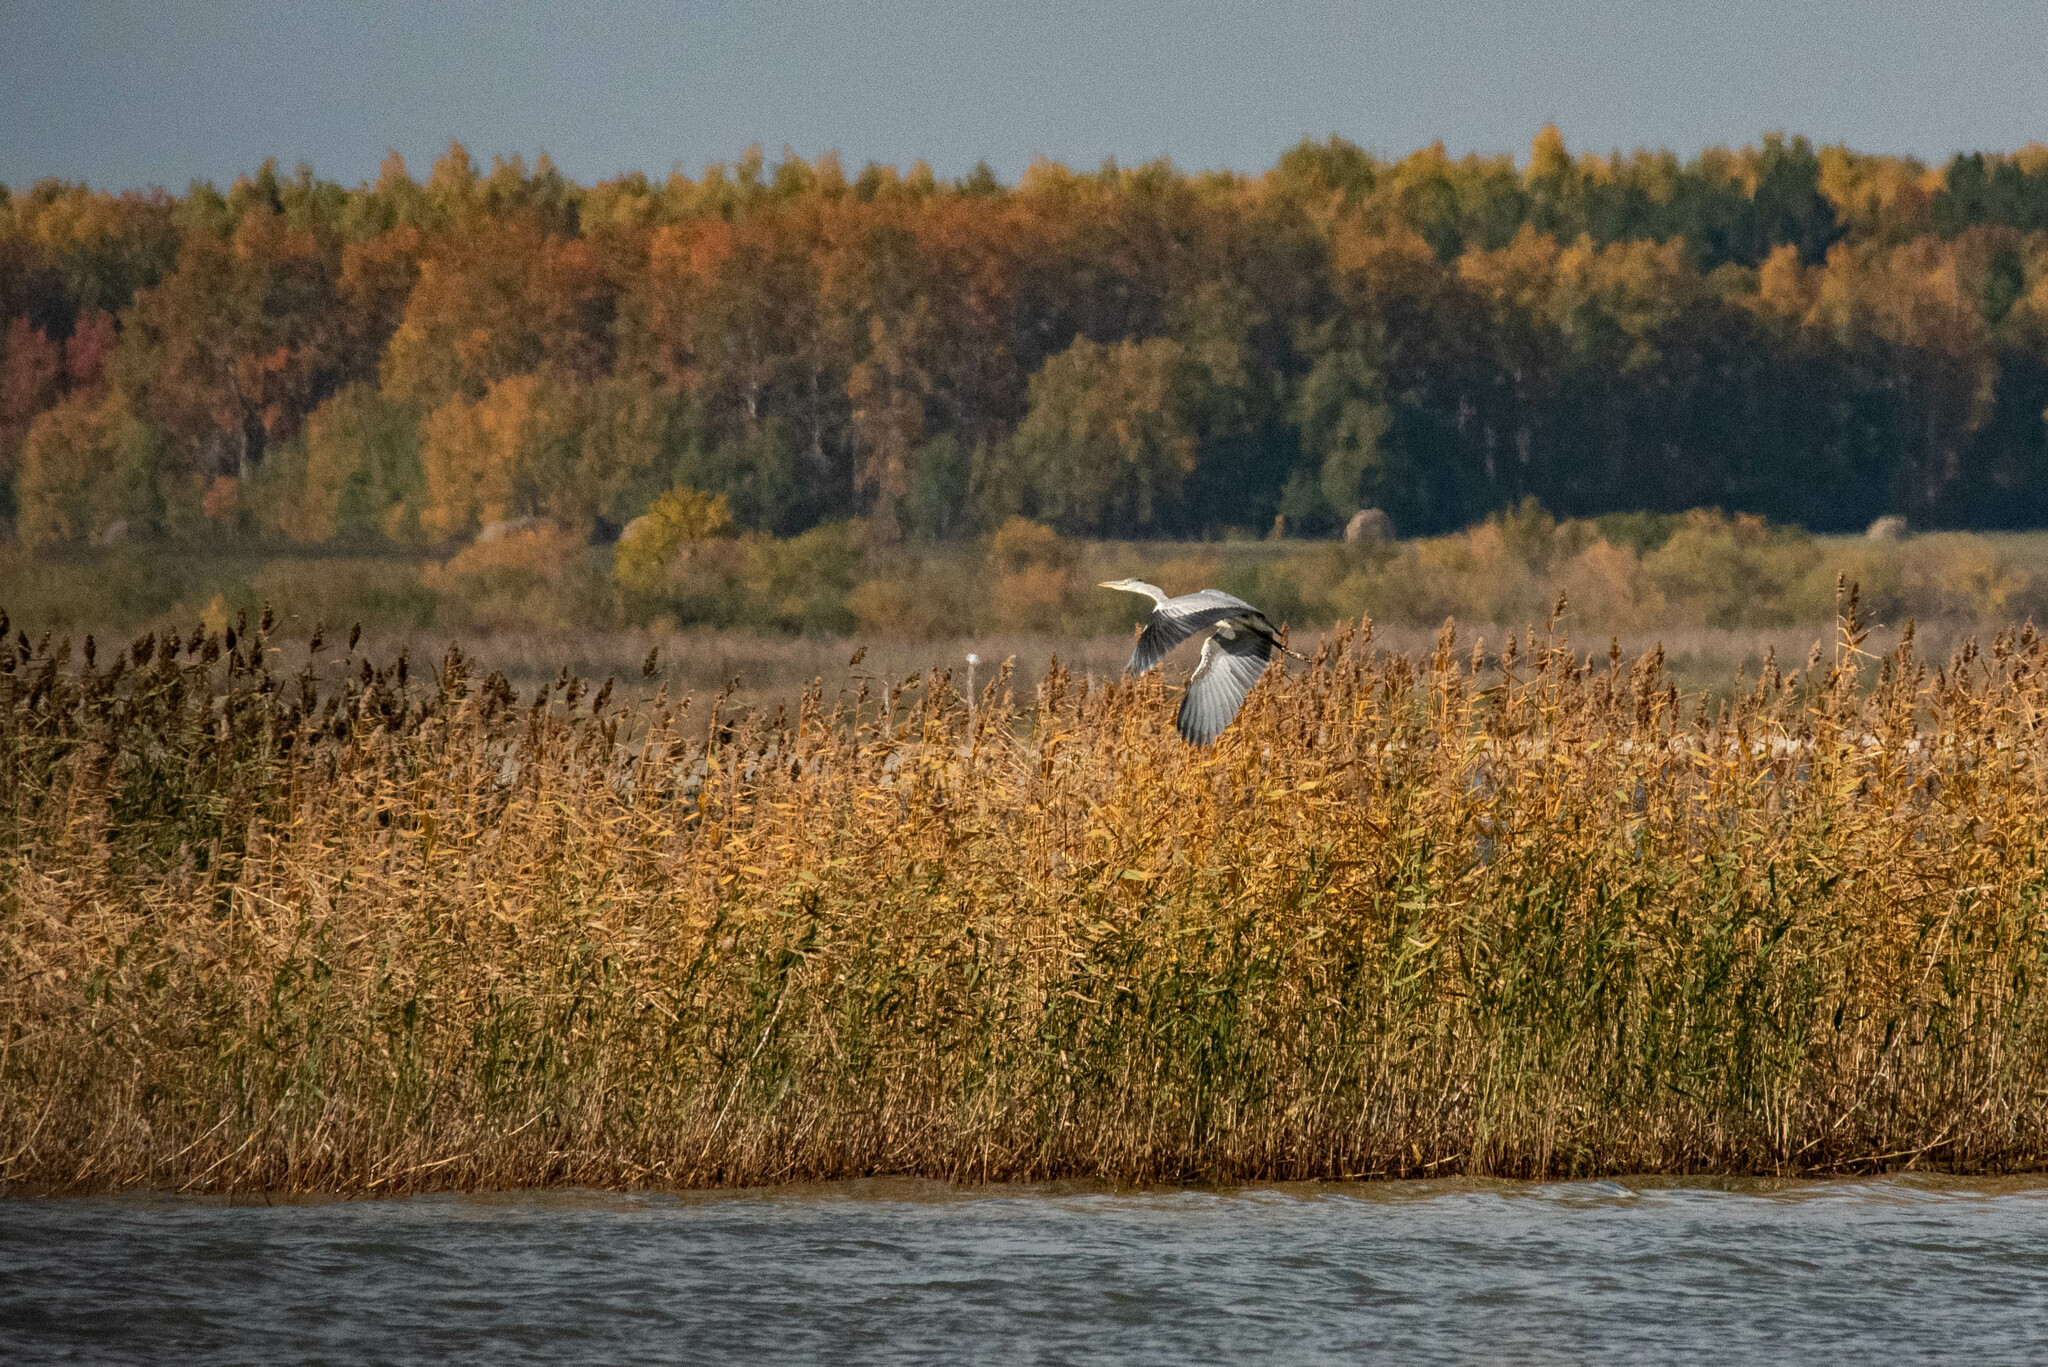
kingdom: Animalia
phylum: Chordata
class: Aves
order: Pelecaniformes
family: Ardeidae
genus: Ardea
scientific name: Ardea cinerea
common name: Grey heron
